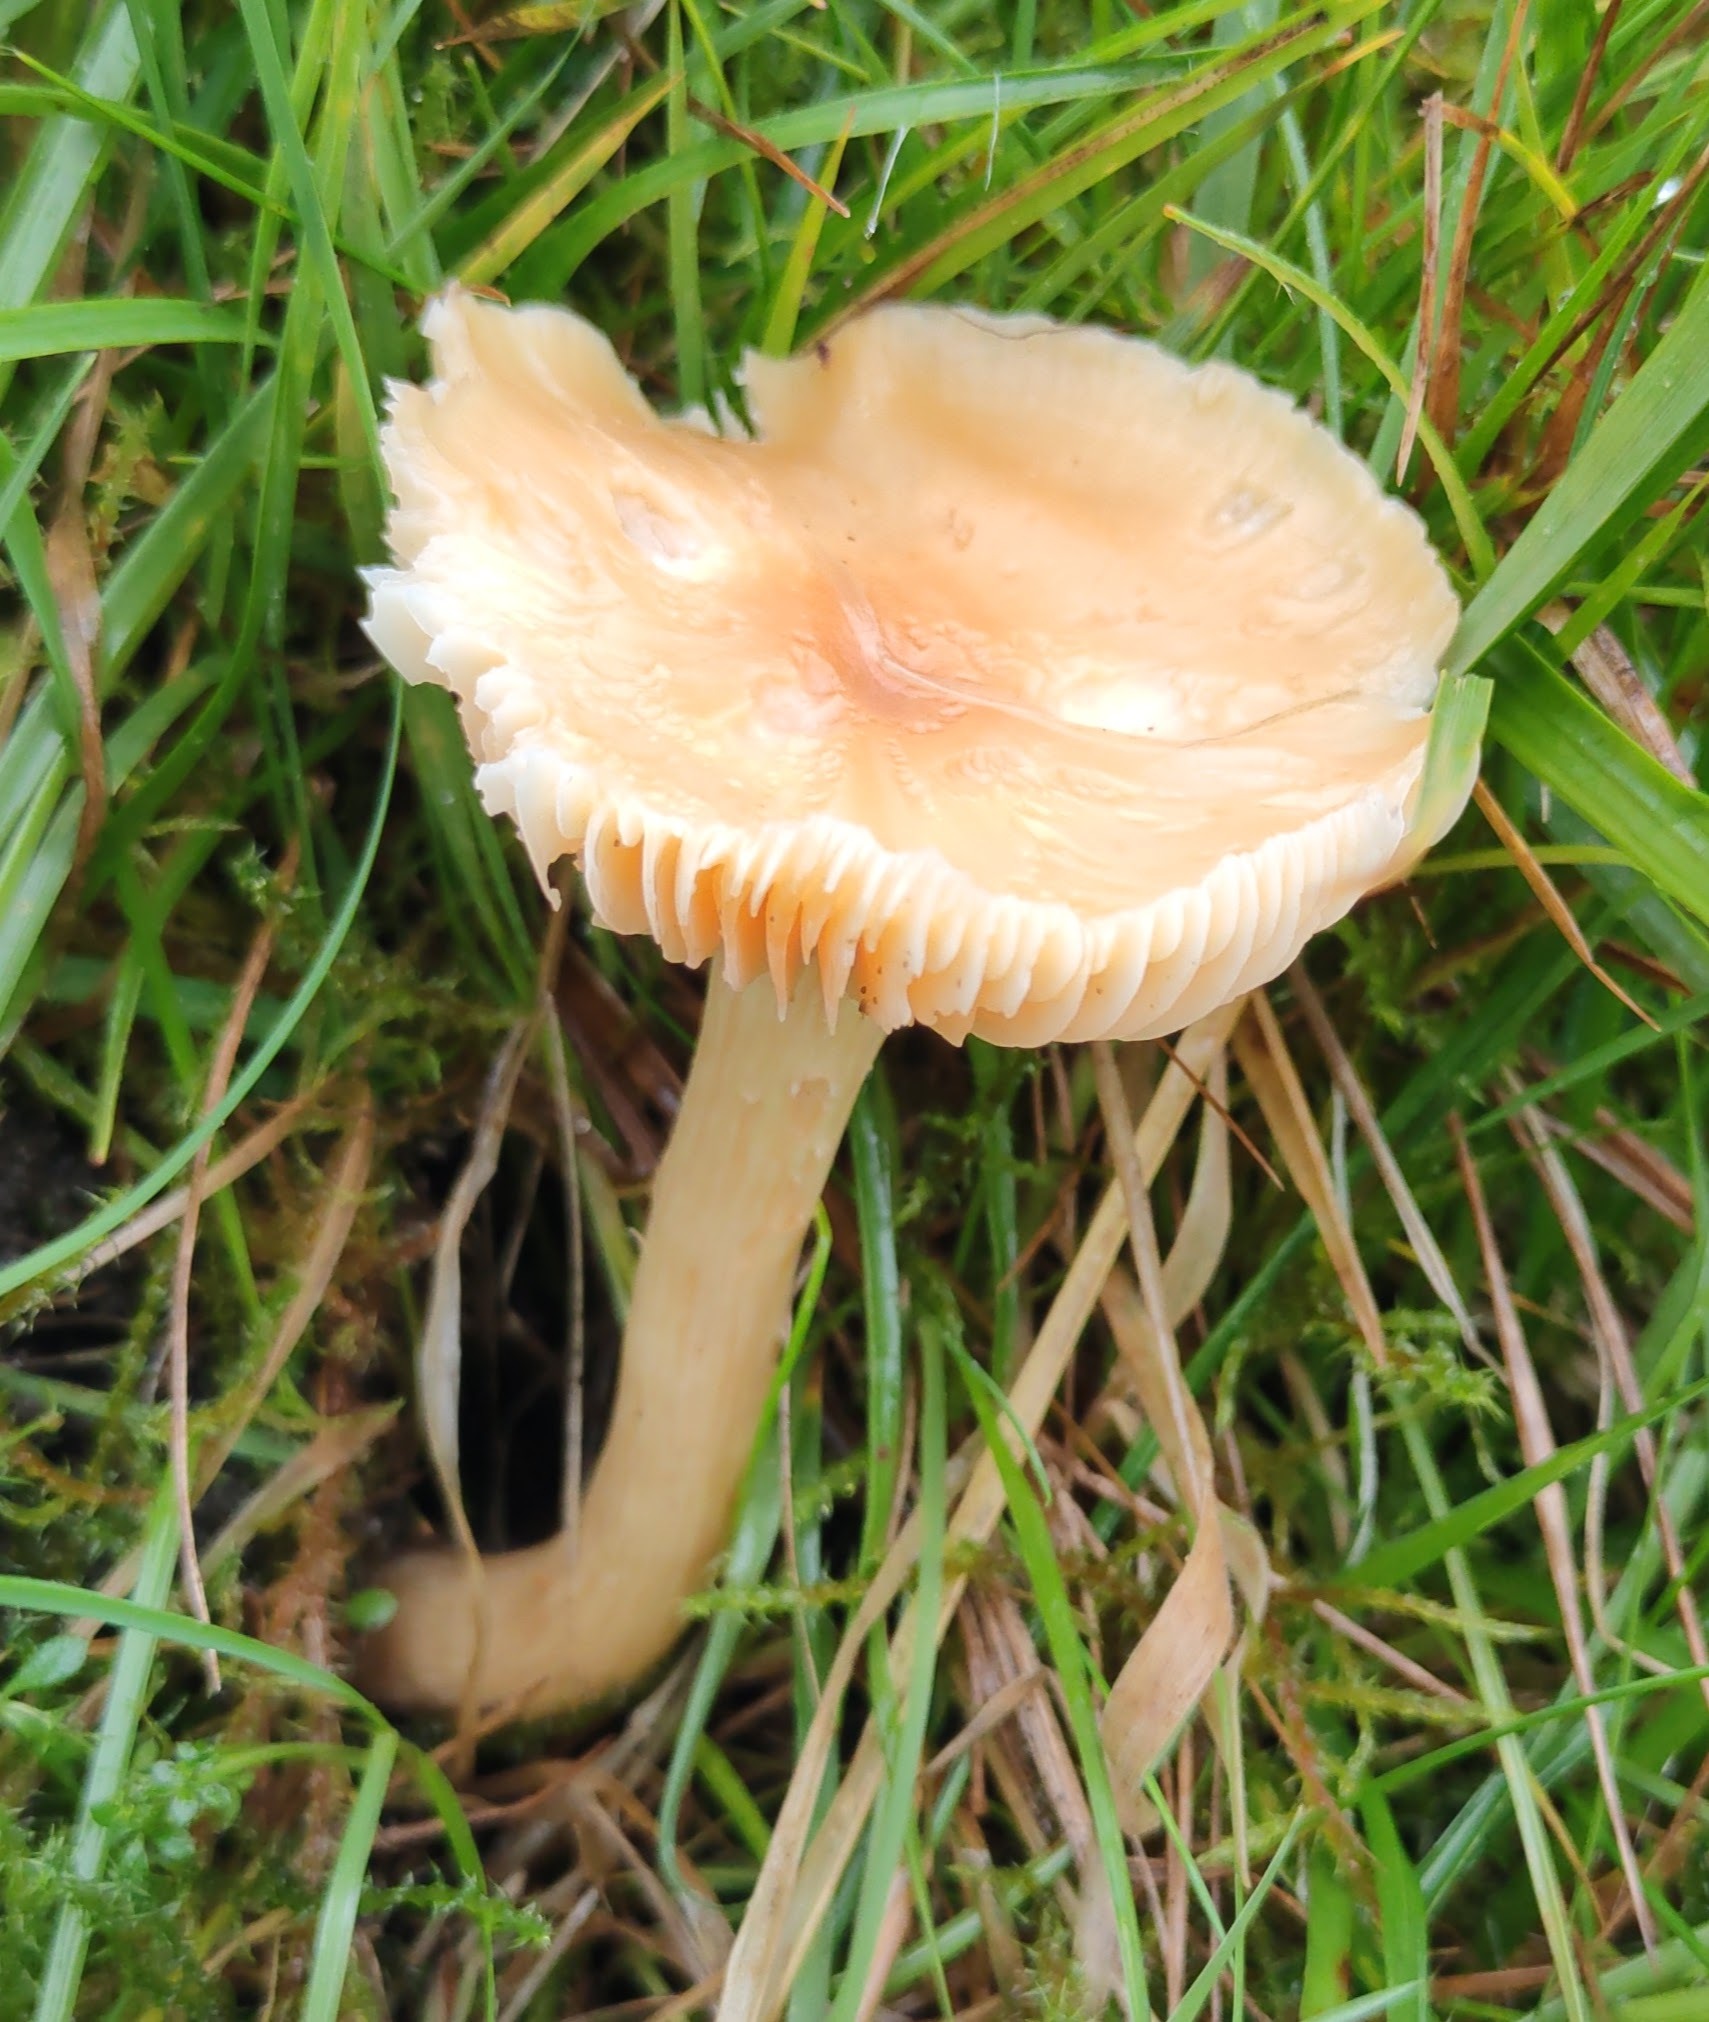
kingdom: Fungi
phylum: Basidiomycota
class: Agaricomycetes
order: Agaricales
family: Hygrophoraceae
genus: Cuphophyllus
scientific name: Cuphophyllus pratensis
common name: Meadow waxcap
